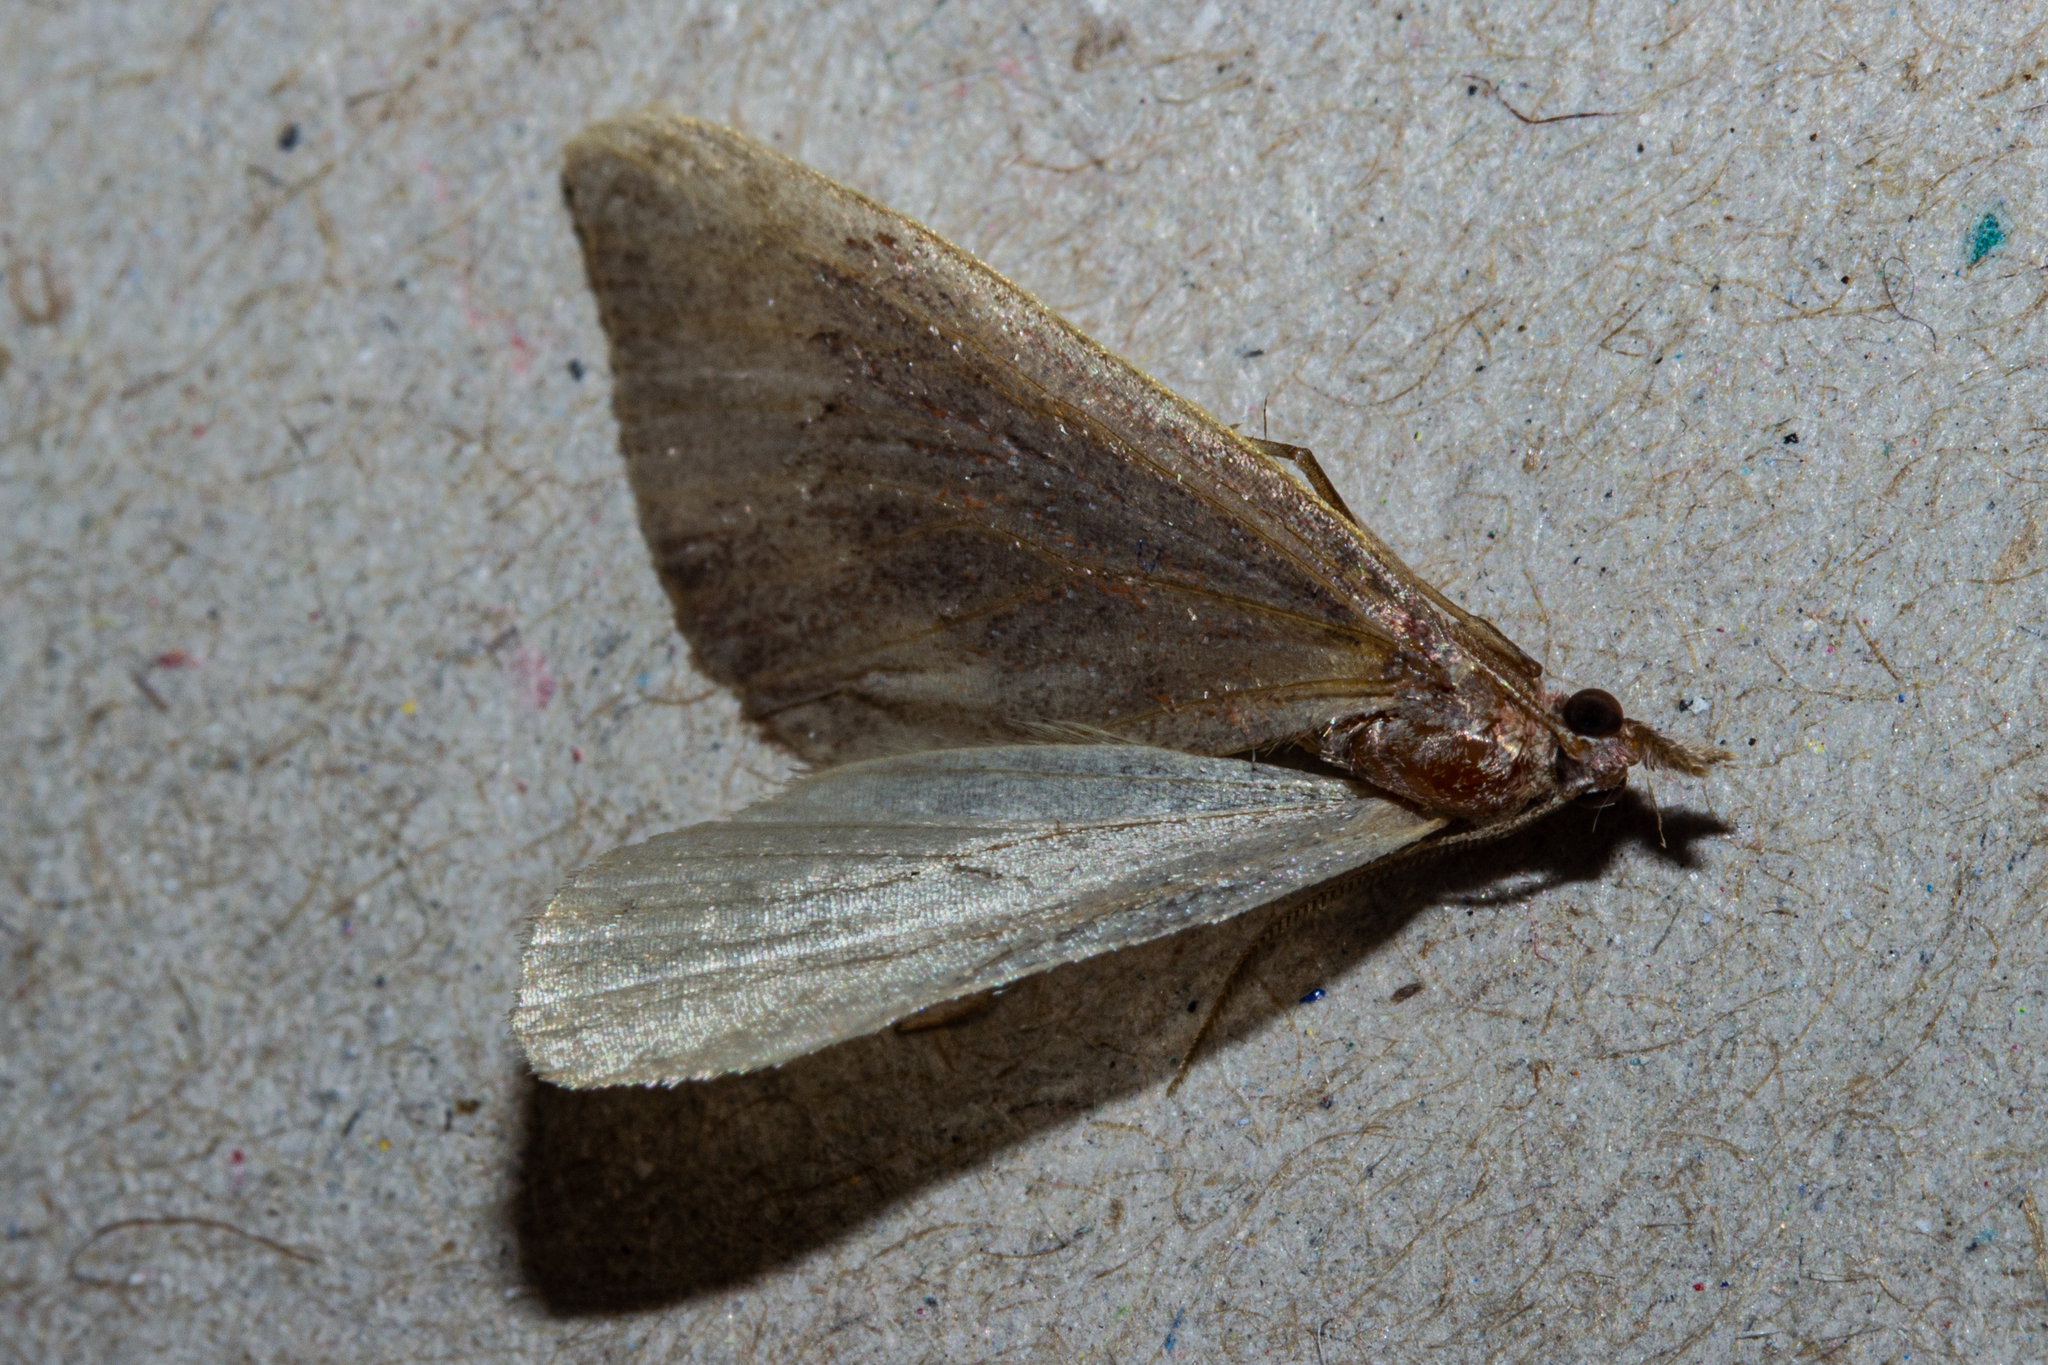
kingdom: Animalia
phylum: Arthropoda
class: Insecta
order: Lepidoptera
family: Geometridae
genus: Xanthorhoe
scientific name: Xanthorhoe occulta
